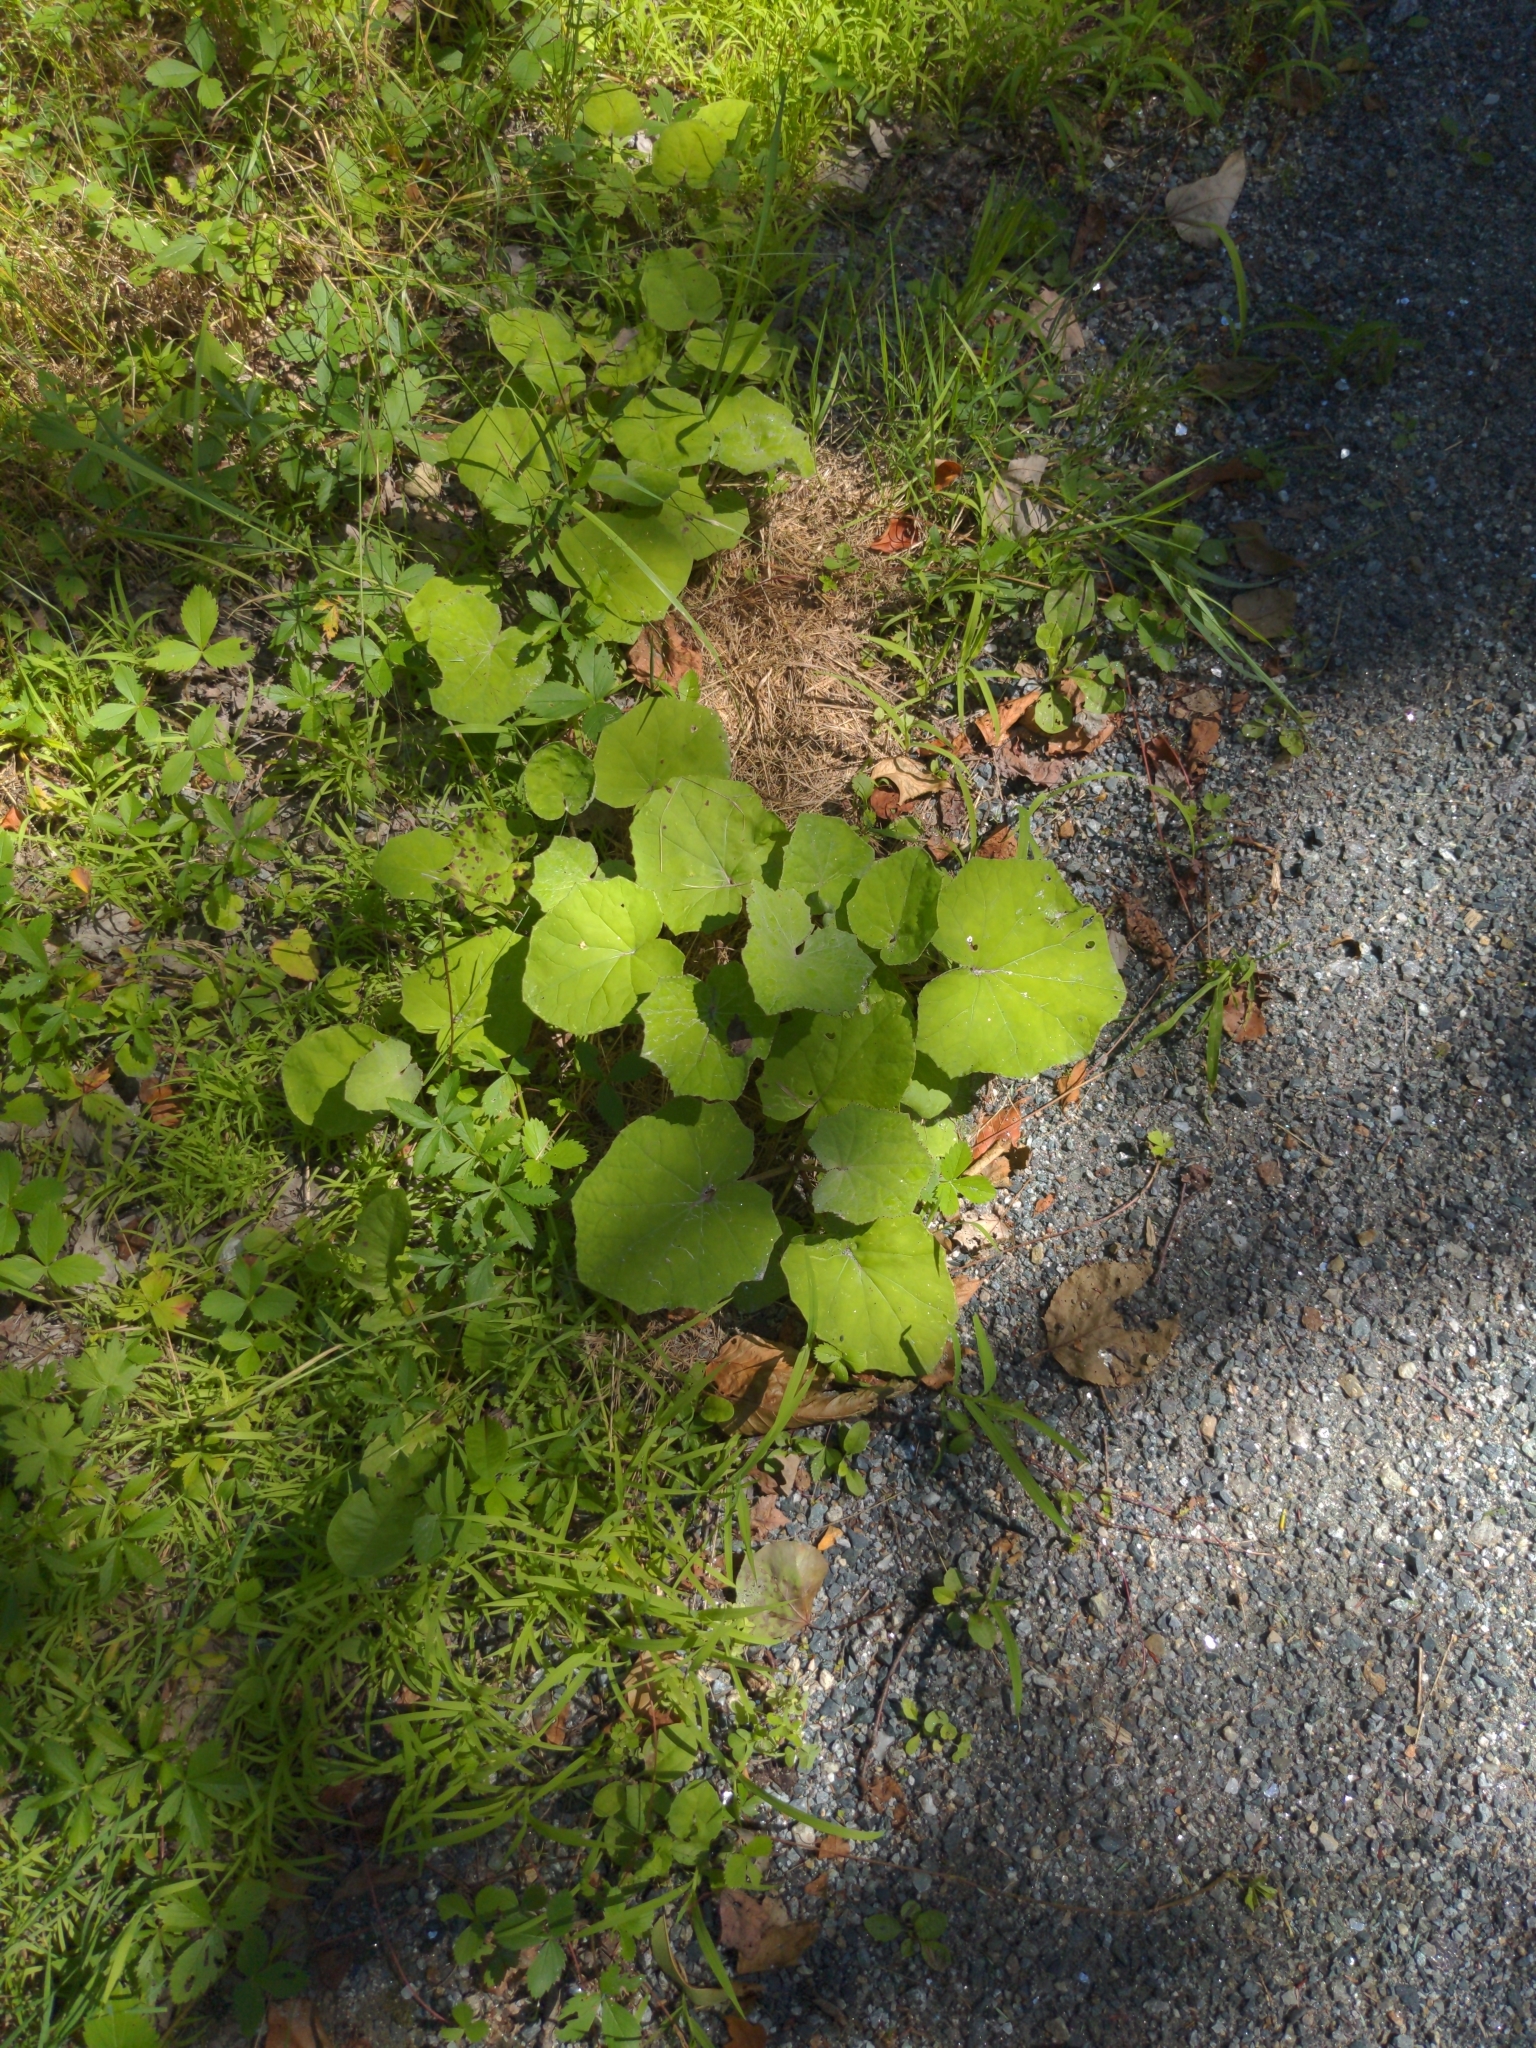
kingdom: Plantae
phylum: Tracheophyta
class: Magnoliopsida
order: Asterales
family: Asteraceae
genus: Tussilago
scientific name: Tussilago farfara
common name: Coltsfoot
